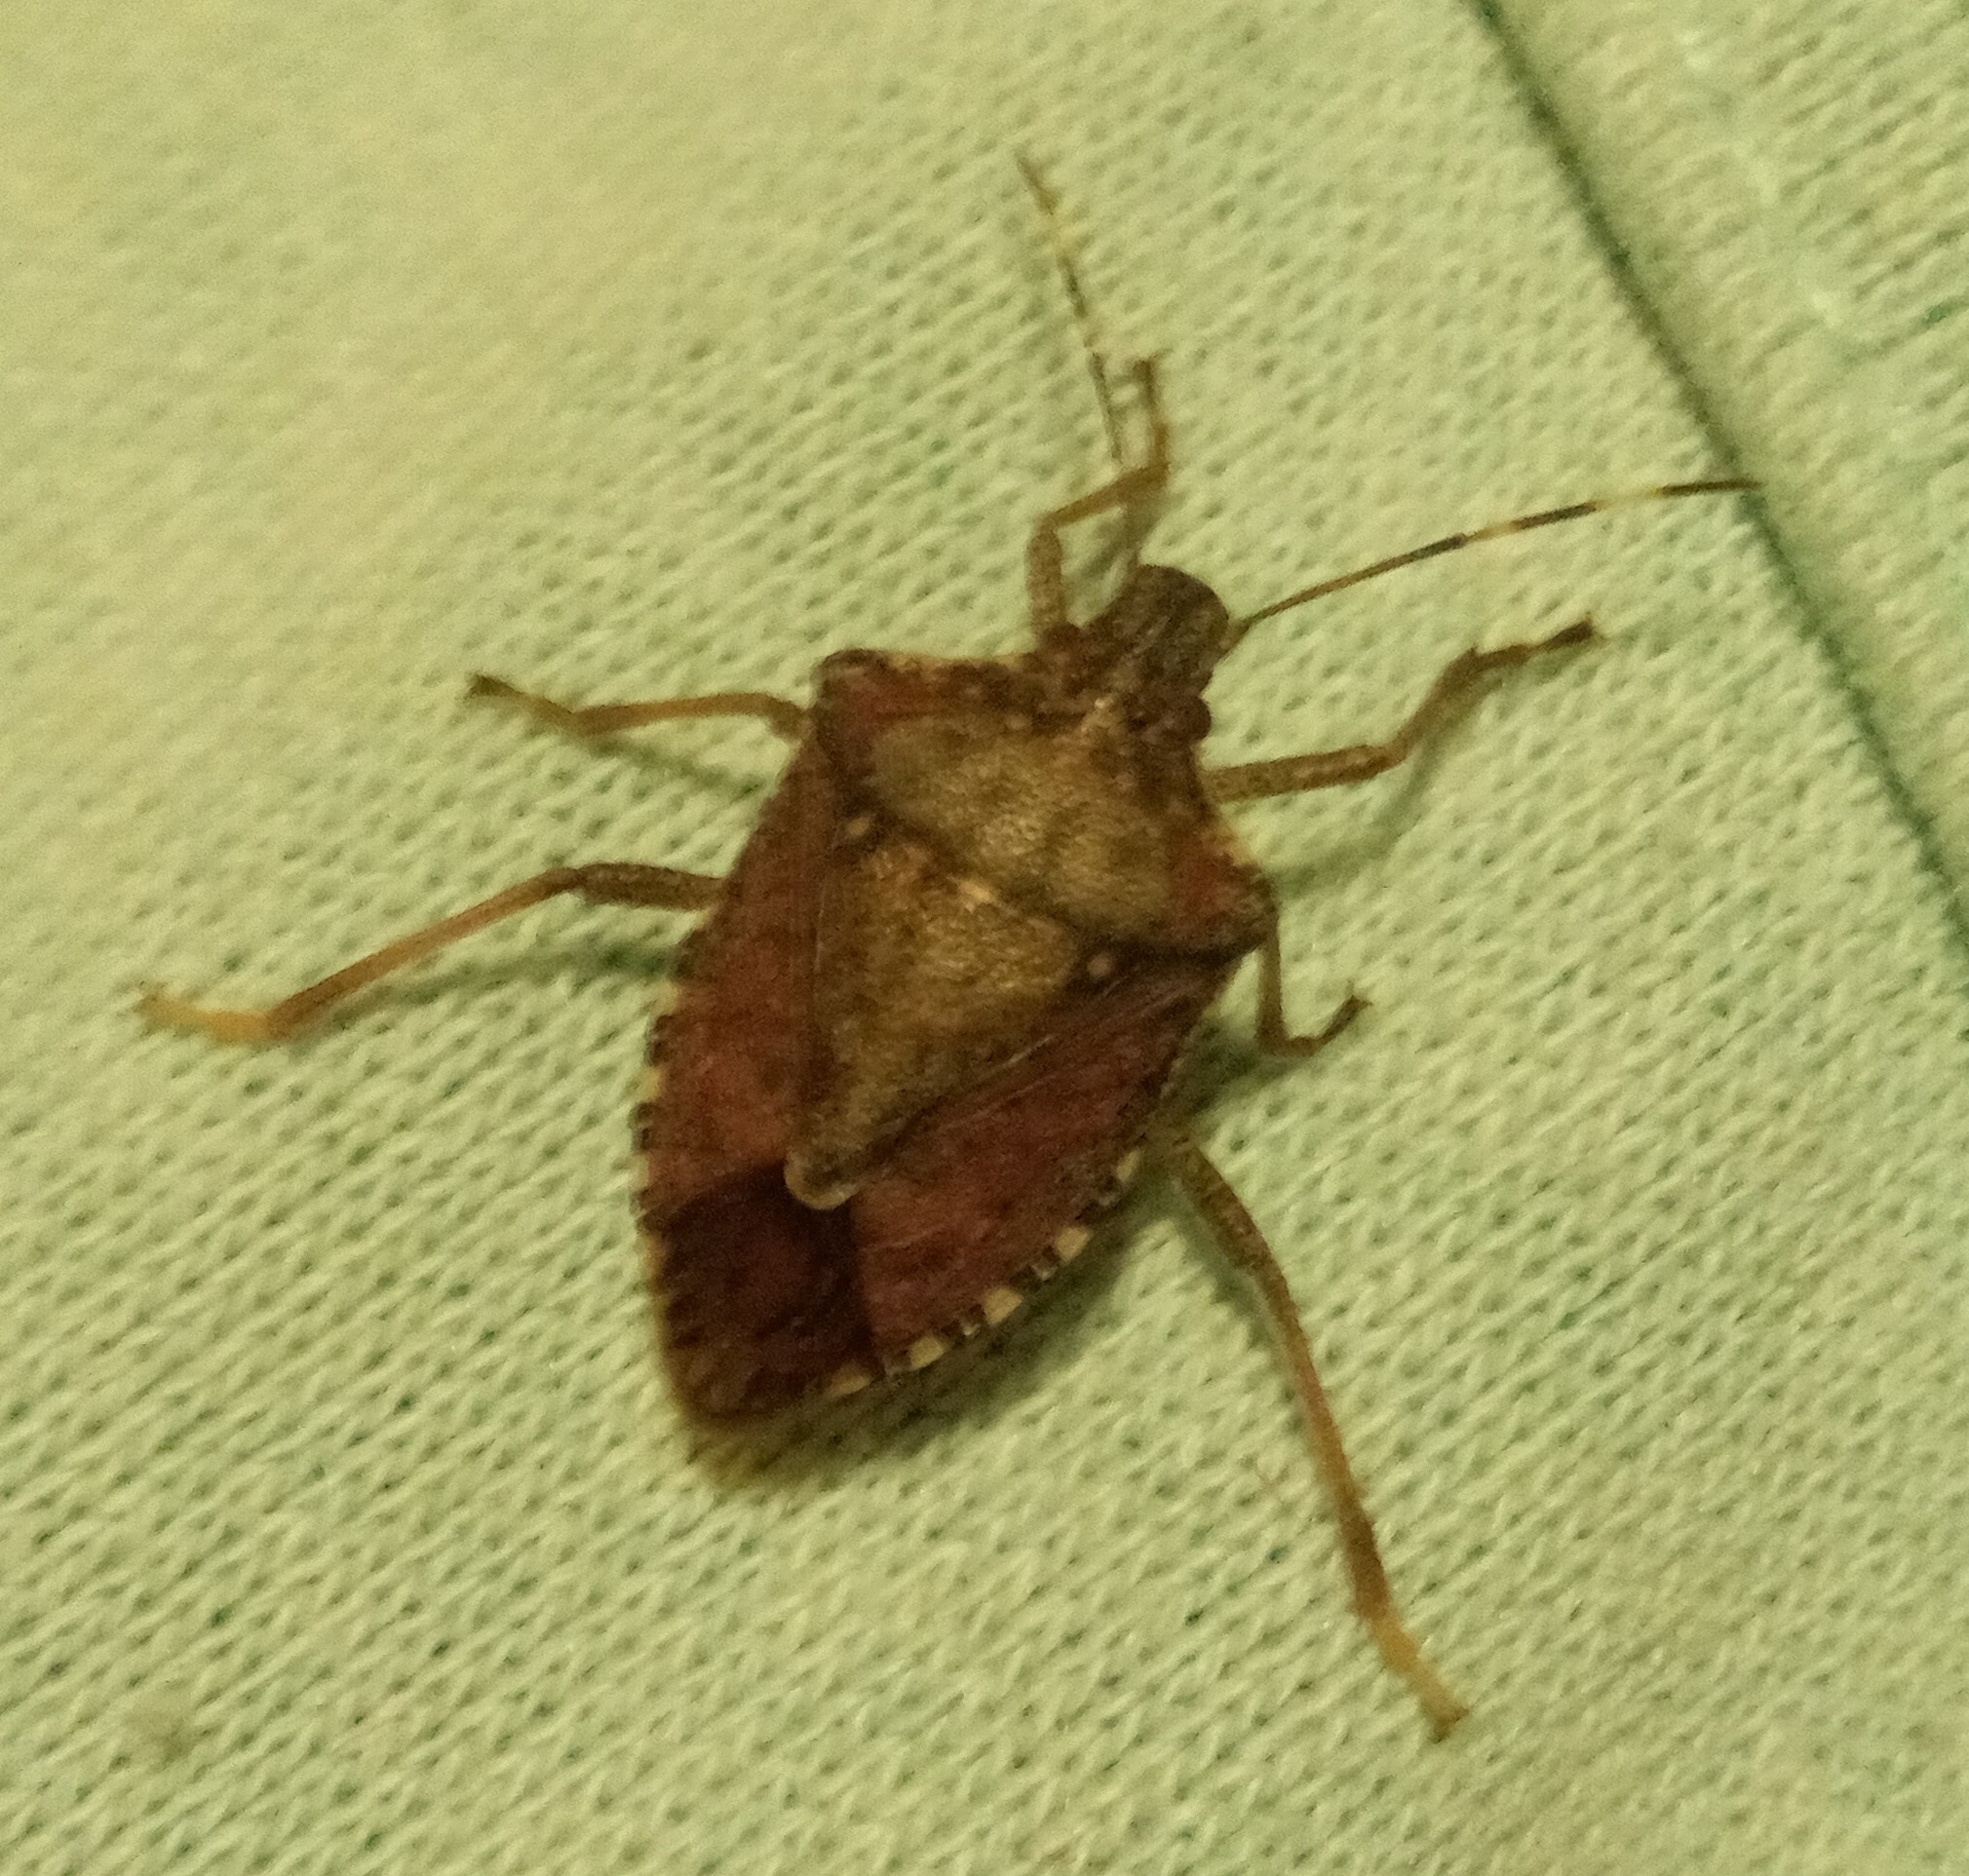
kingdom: Animalia
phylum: Arthropoda
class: Insecta
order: Hemiptera
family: Pentatomidae
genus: Halyomorpha
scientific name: Halyomorpha halys
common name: Brown marmorated stink bug
